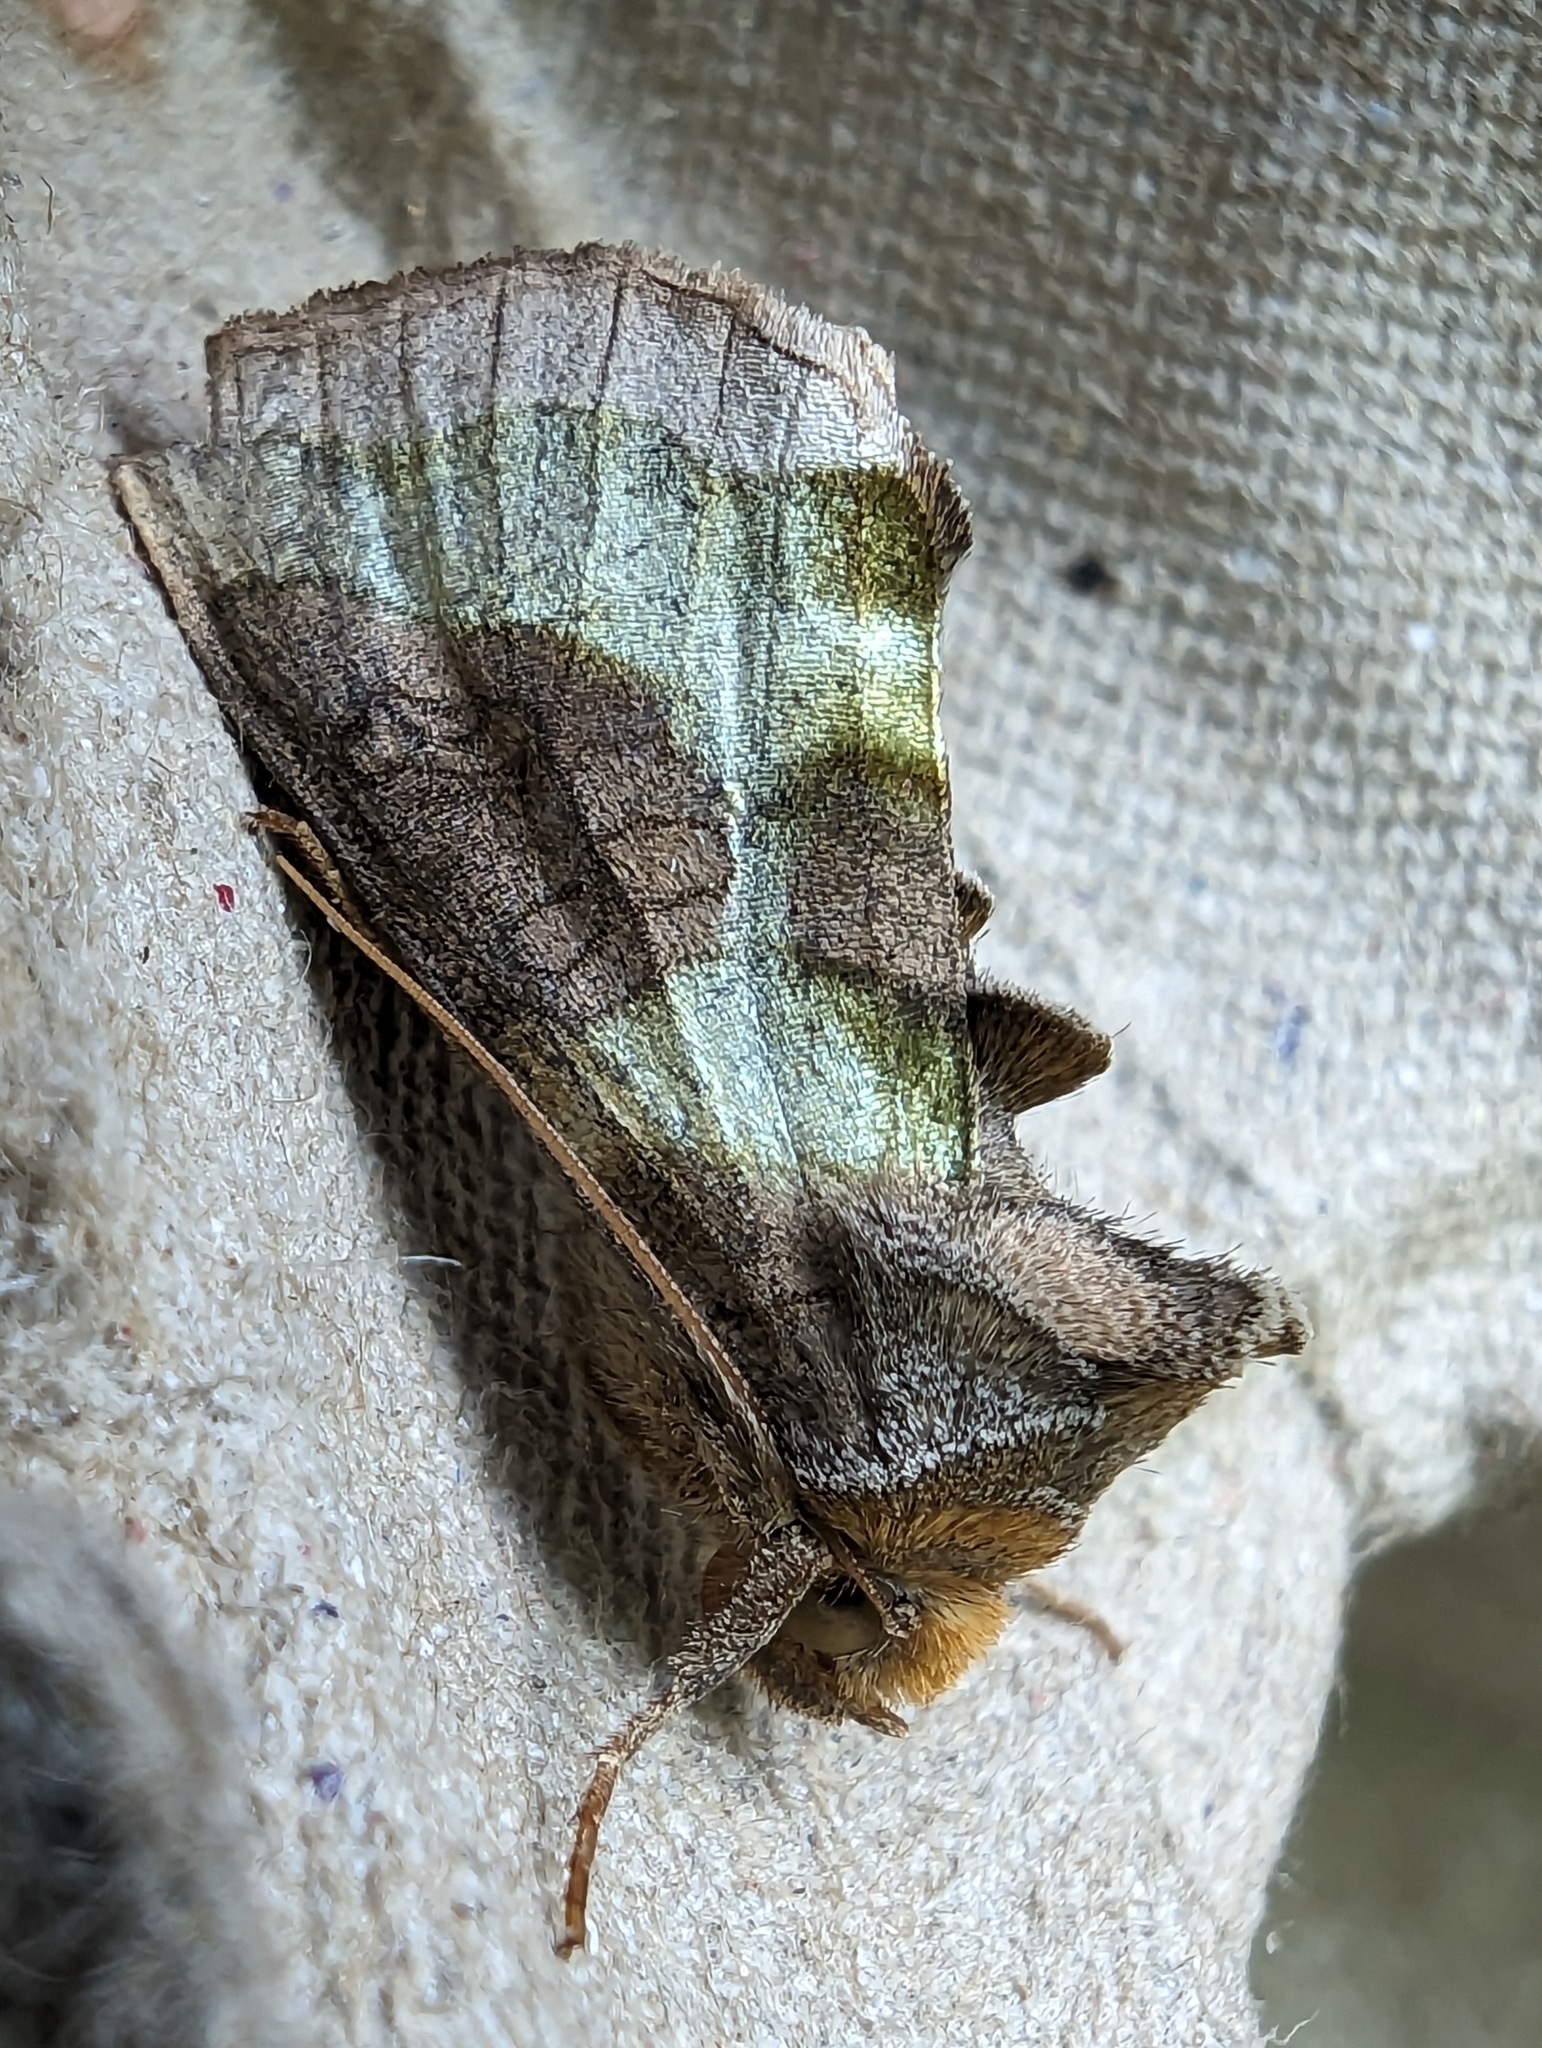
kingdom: Animalia
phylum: Arthropoda
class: Insecta
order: Lepidoptera
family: Noctuidae
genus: Diachrysia
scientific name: Diachrysia chrysitis
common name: Burnished brass
